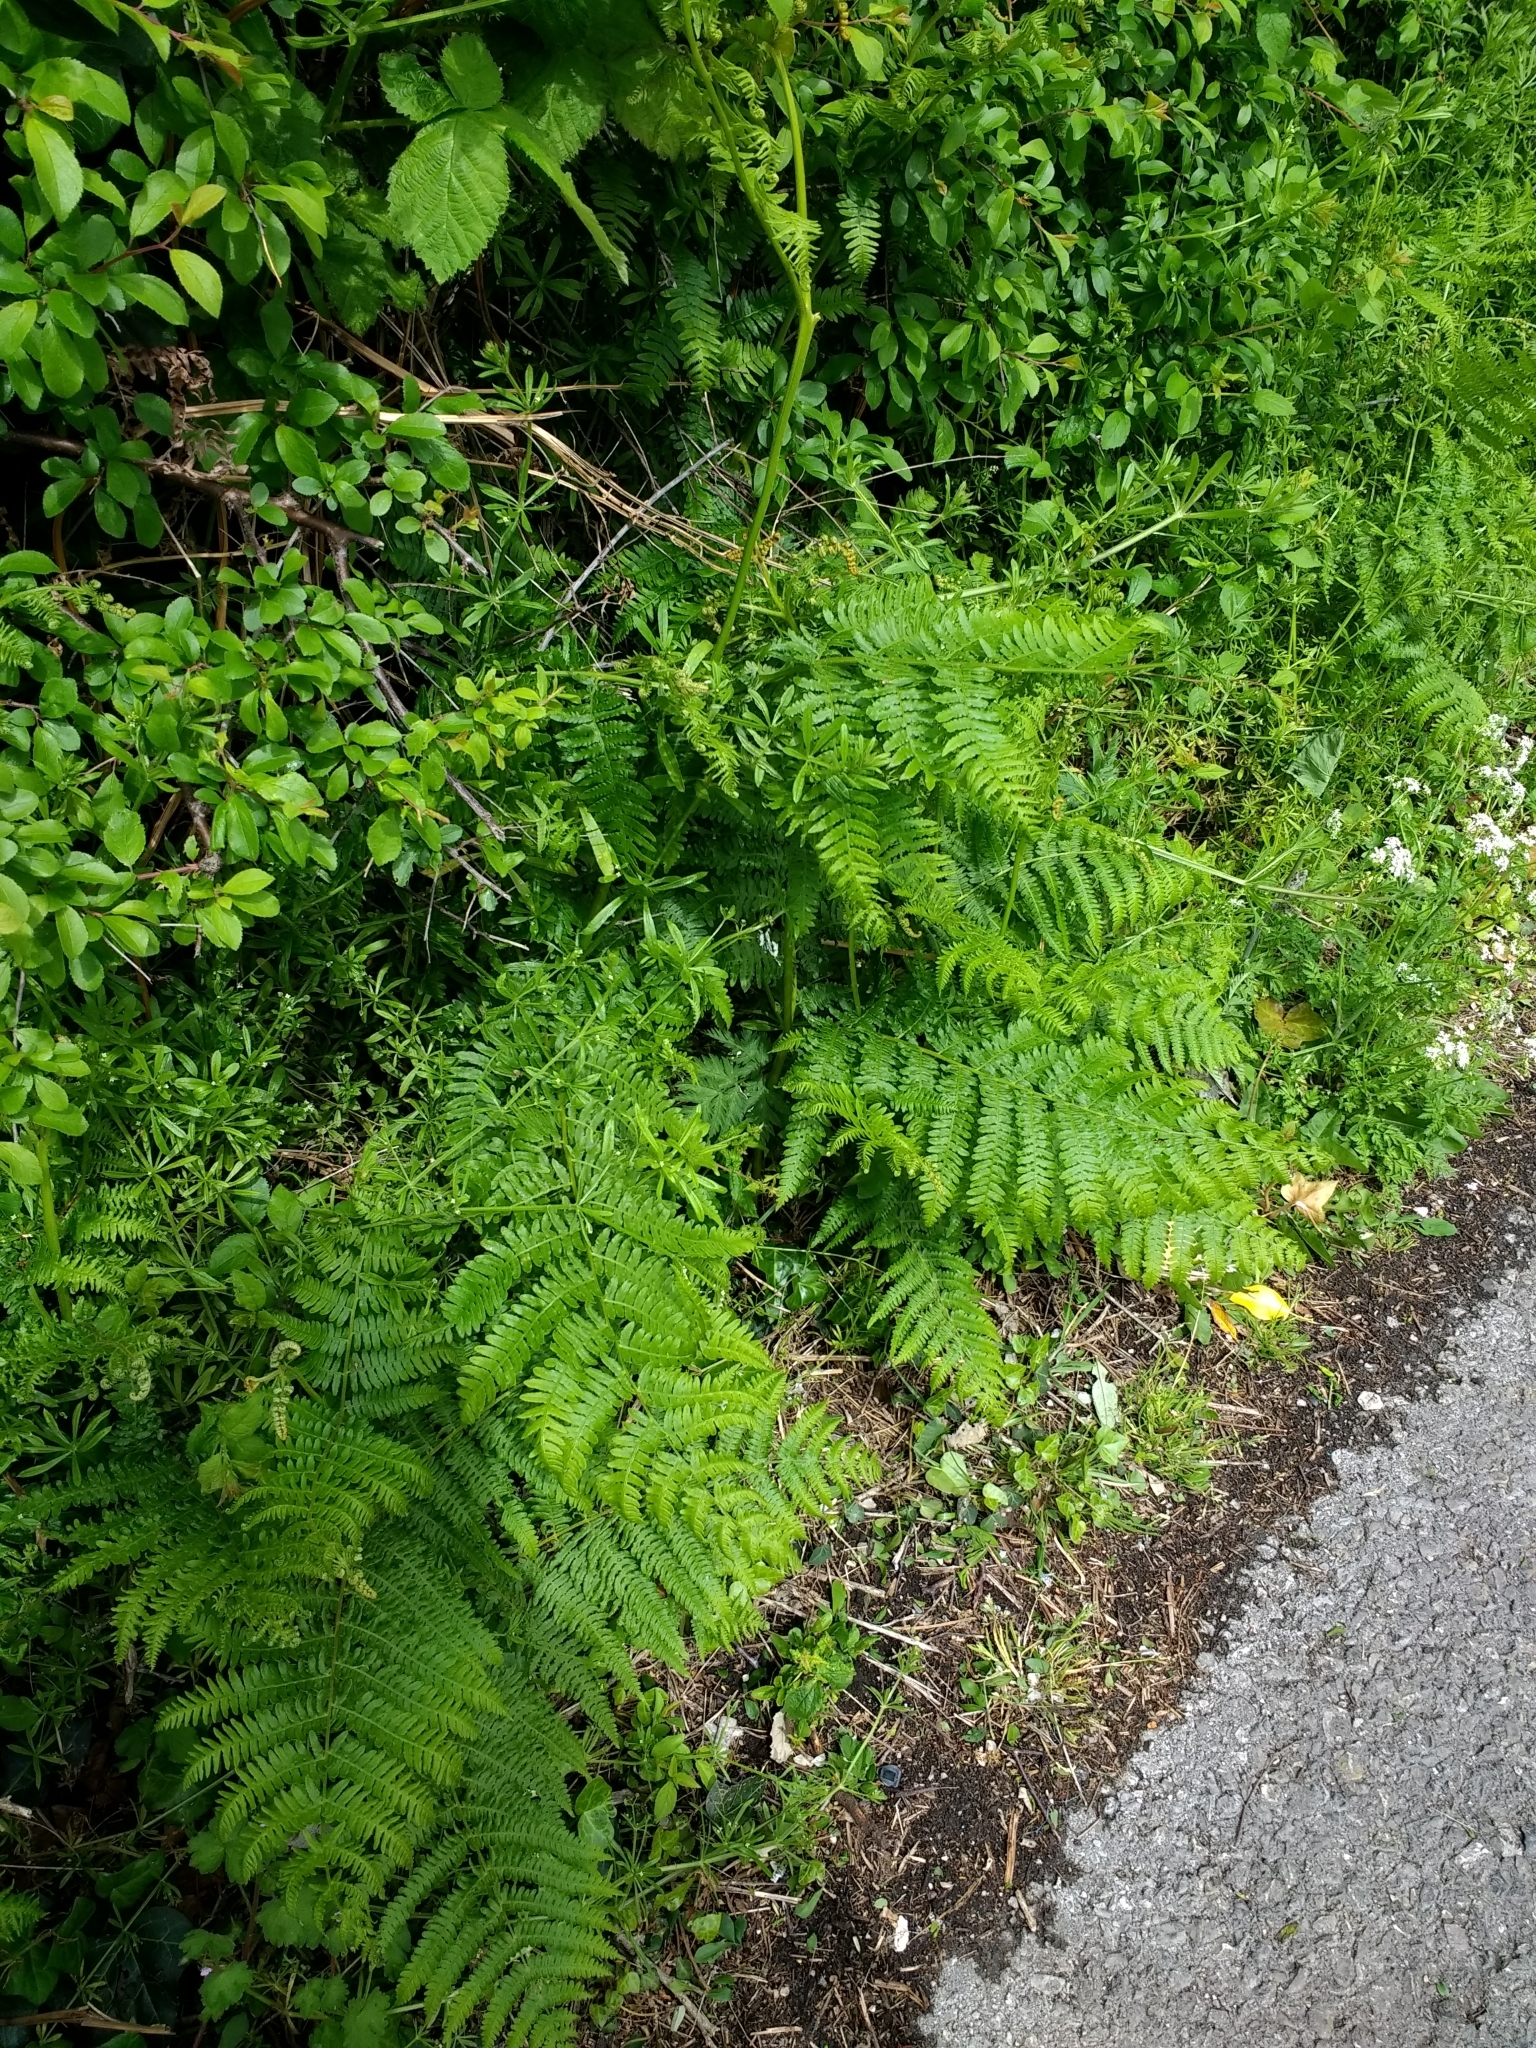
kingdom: Plantae
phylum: Tracheophyta
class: Polypodiopsida
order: Polypodiales
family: Dennstaedtiaceae
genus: Pteridium
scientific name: Pteridium aquilinum
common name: Bracken
